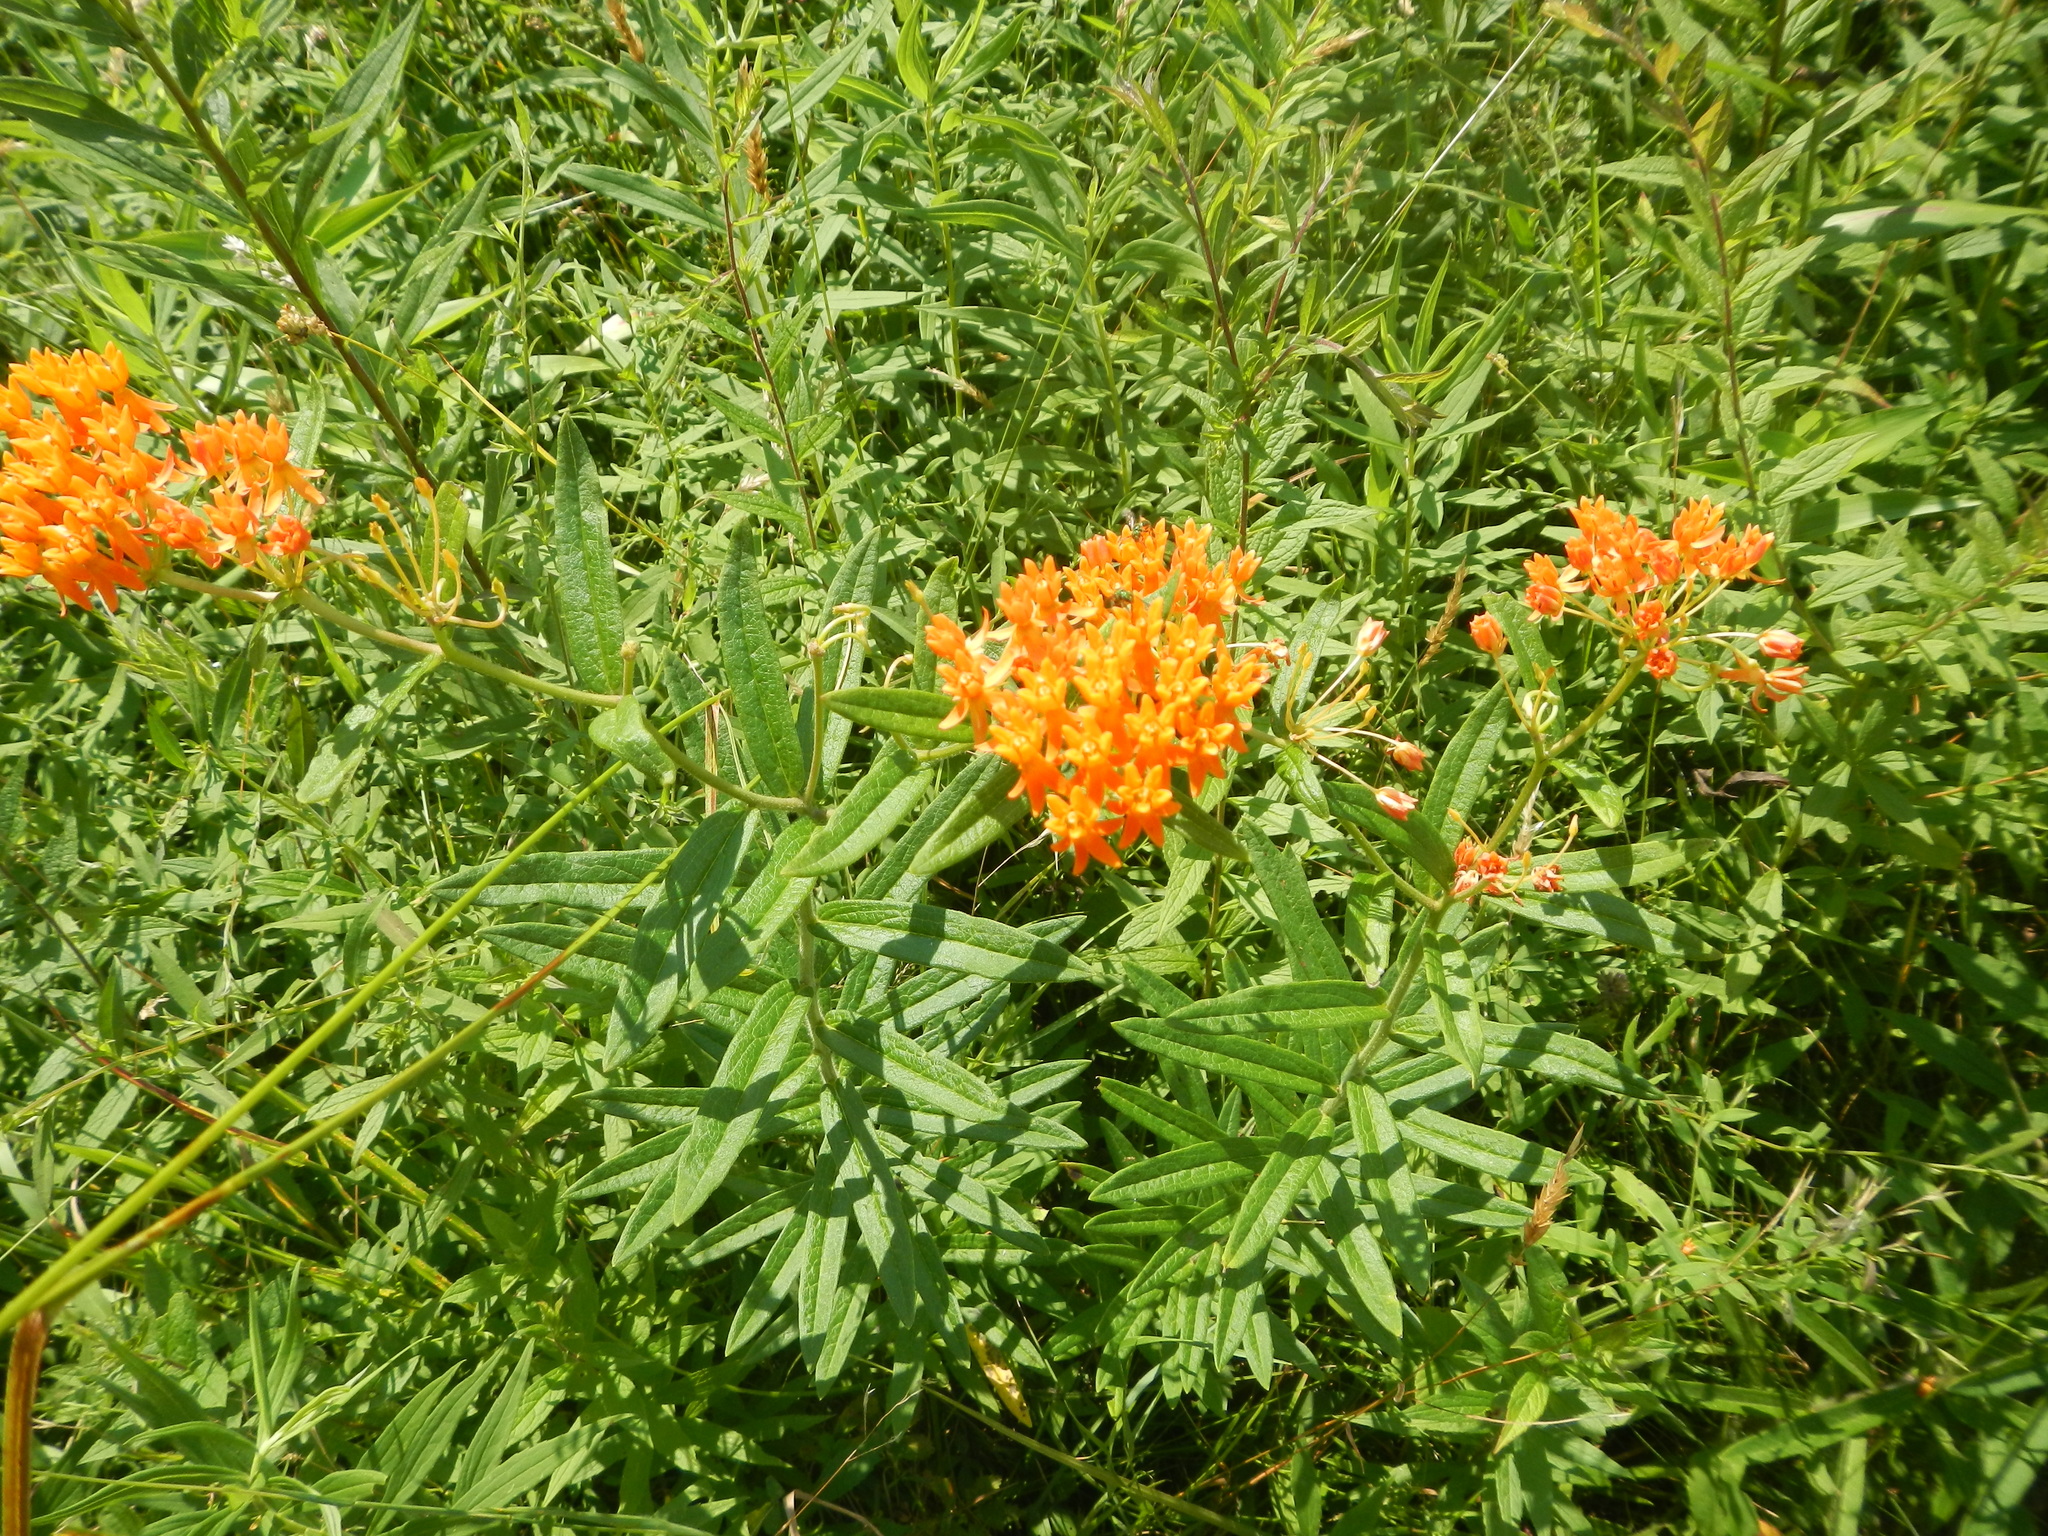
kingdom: Plantae
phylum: Tracheophyta
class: Magnoliopsida
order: Gentianales
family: Apocynaceae
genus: Asclepias
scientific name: Asclepias tuberosa
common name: Butterfly milkweed
